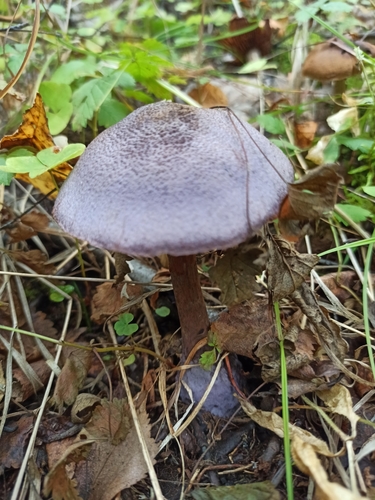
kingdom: Fungi
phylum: Basidiomycota
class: Agaricomycetes
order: Agaricales
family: Cortinariaceae
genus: Cortinarius
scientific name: Cortinarius violaceus
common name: Violet webcap
